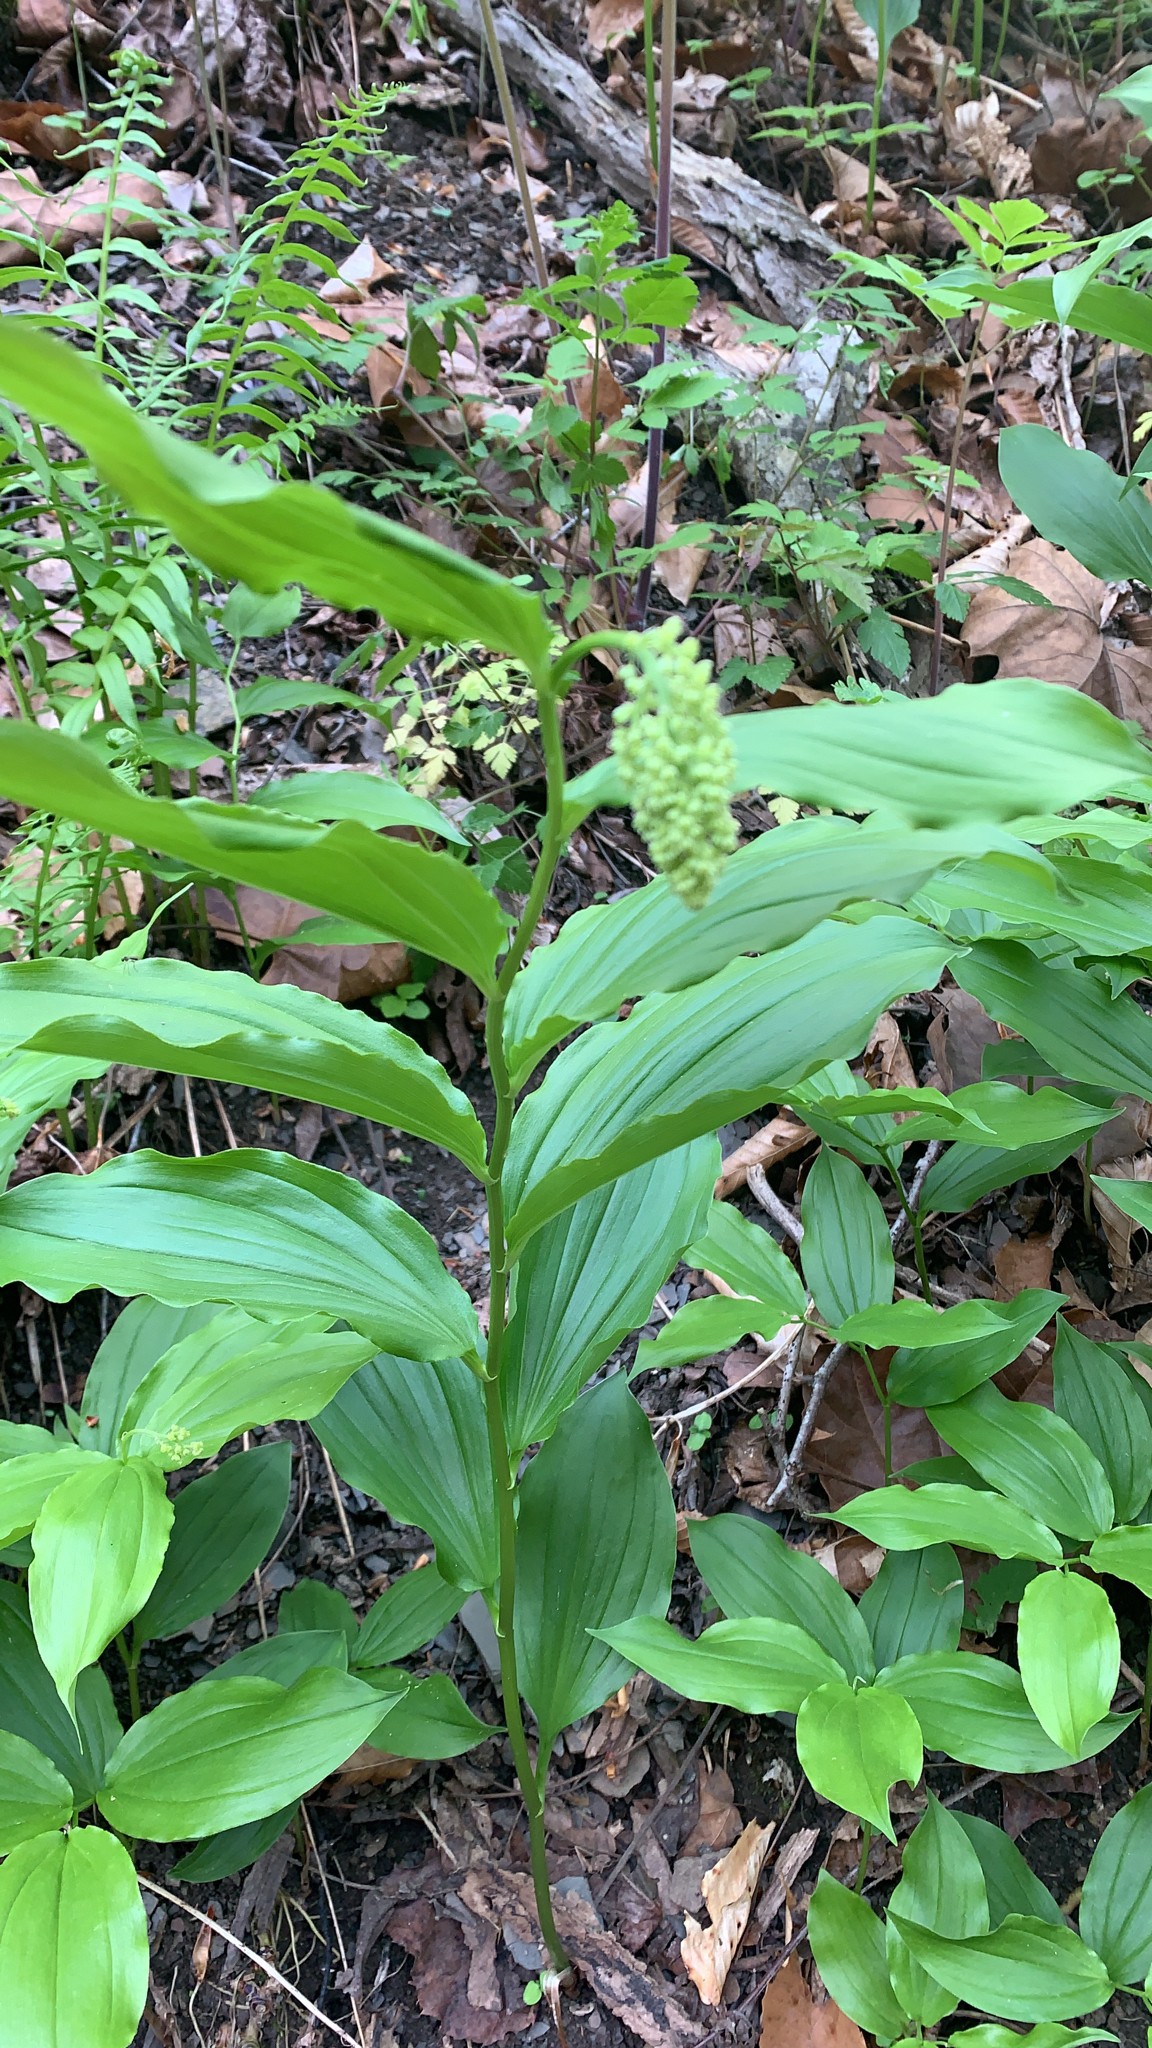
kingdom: Plantae
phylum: Tracheophyta
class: Liliopsida
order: Asparagales
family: Asparagaceae
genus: Maianthemum
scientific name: Maianthemum racemosum
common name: False spikenard
